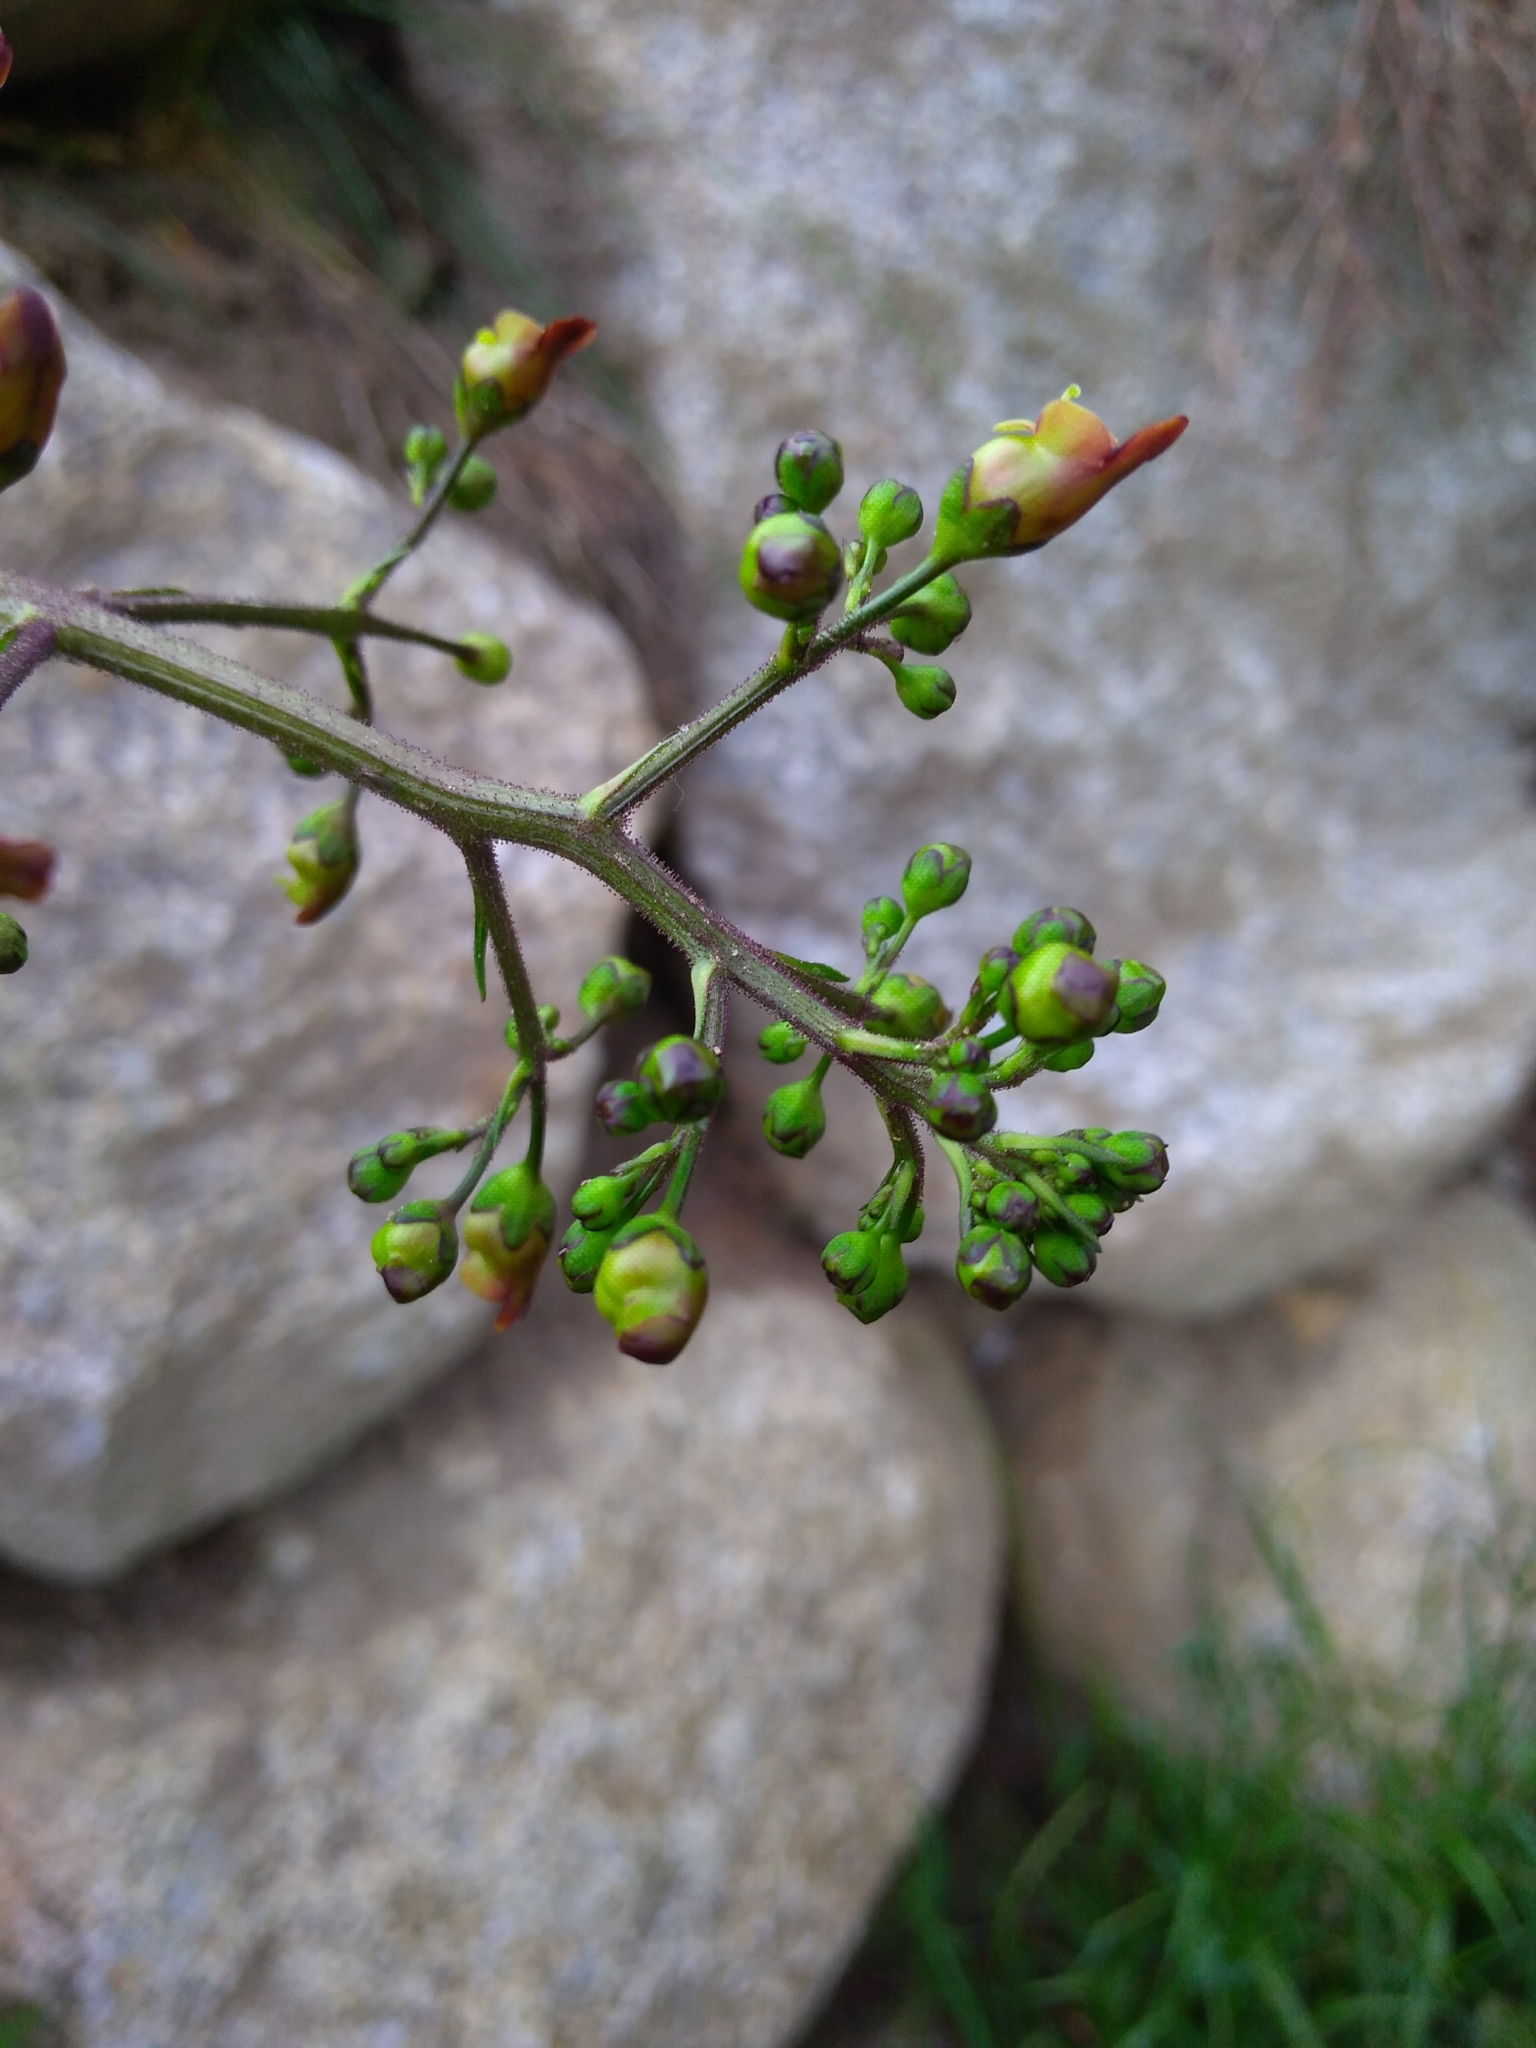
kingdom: Plantae
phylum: Tracheophyta
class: Magnoliopsida
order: Lamiales
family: Scrophulariaceae
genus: Scrophularia
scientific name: Scrophularia nodosa
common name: Common figwort
